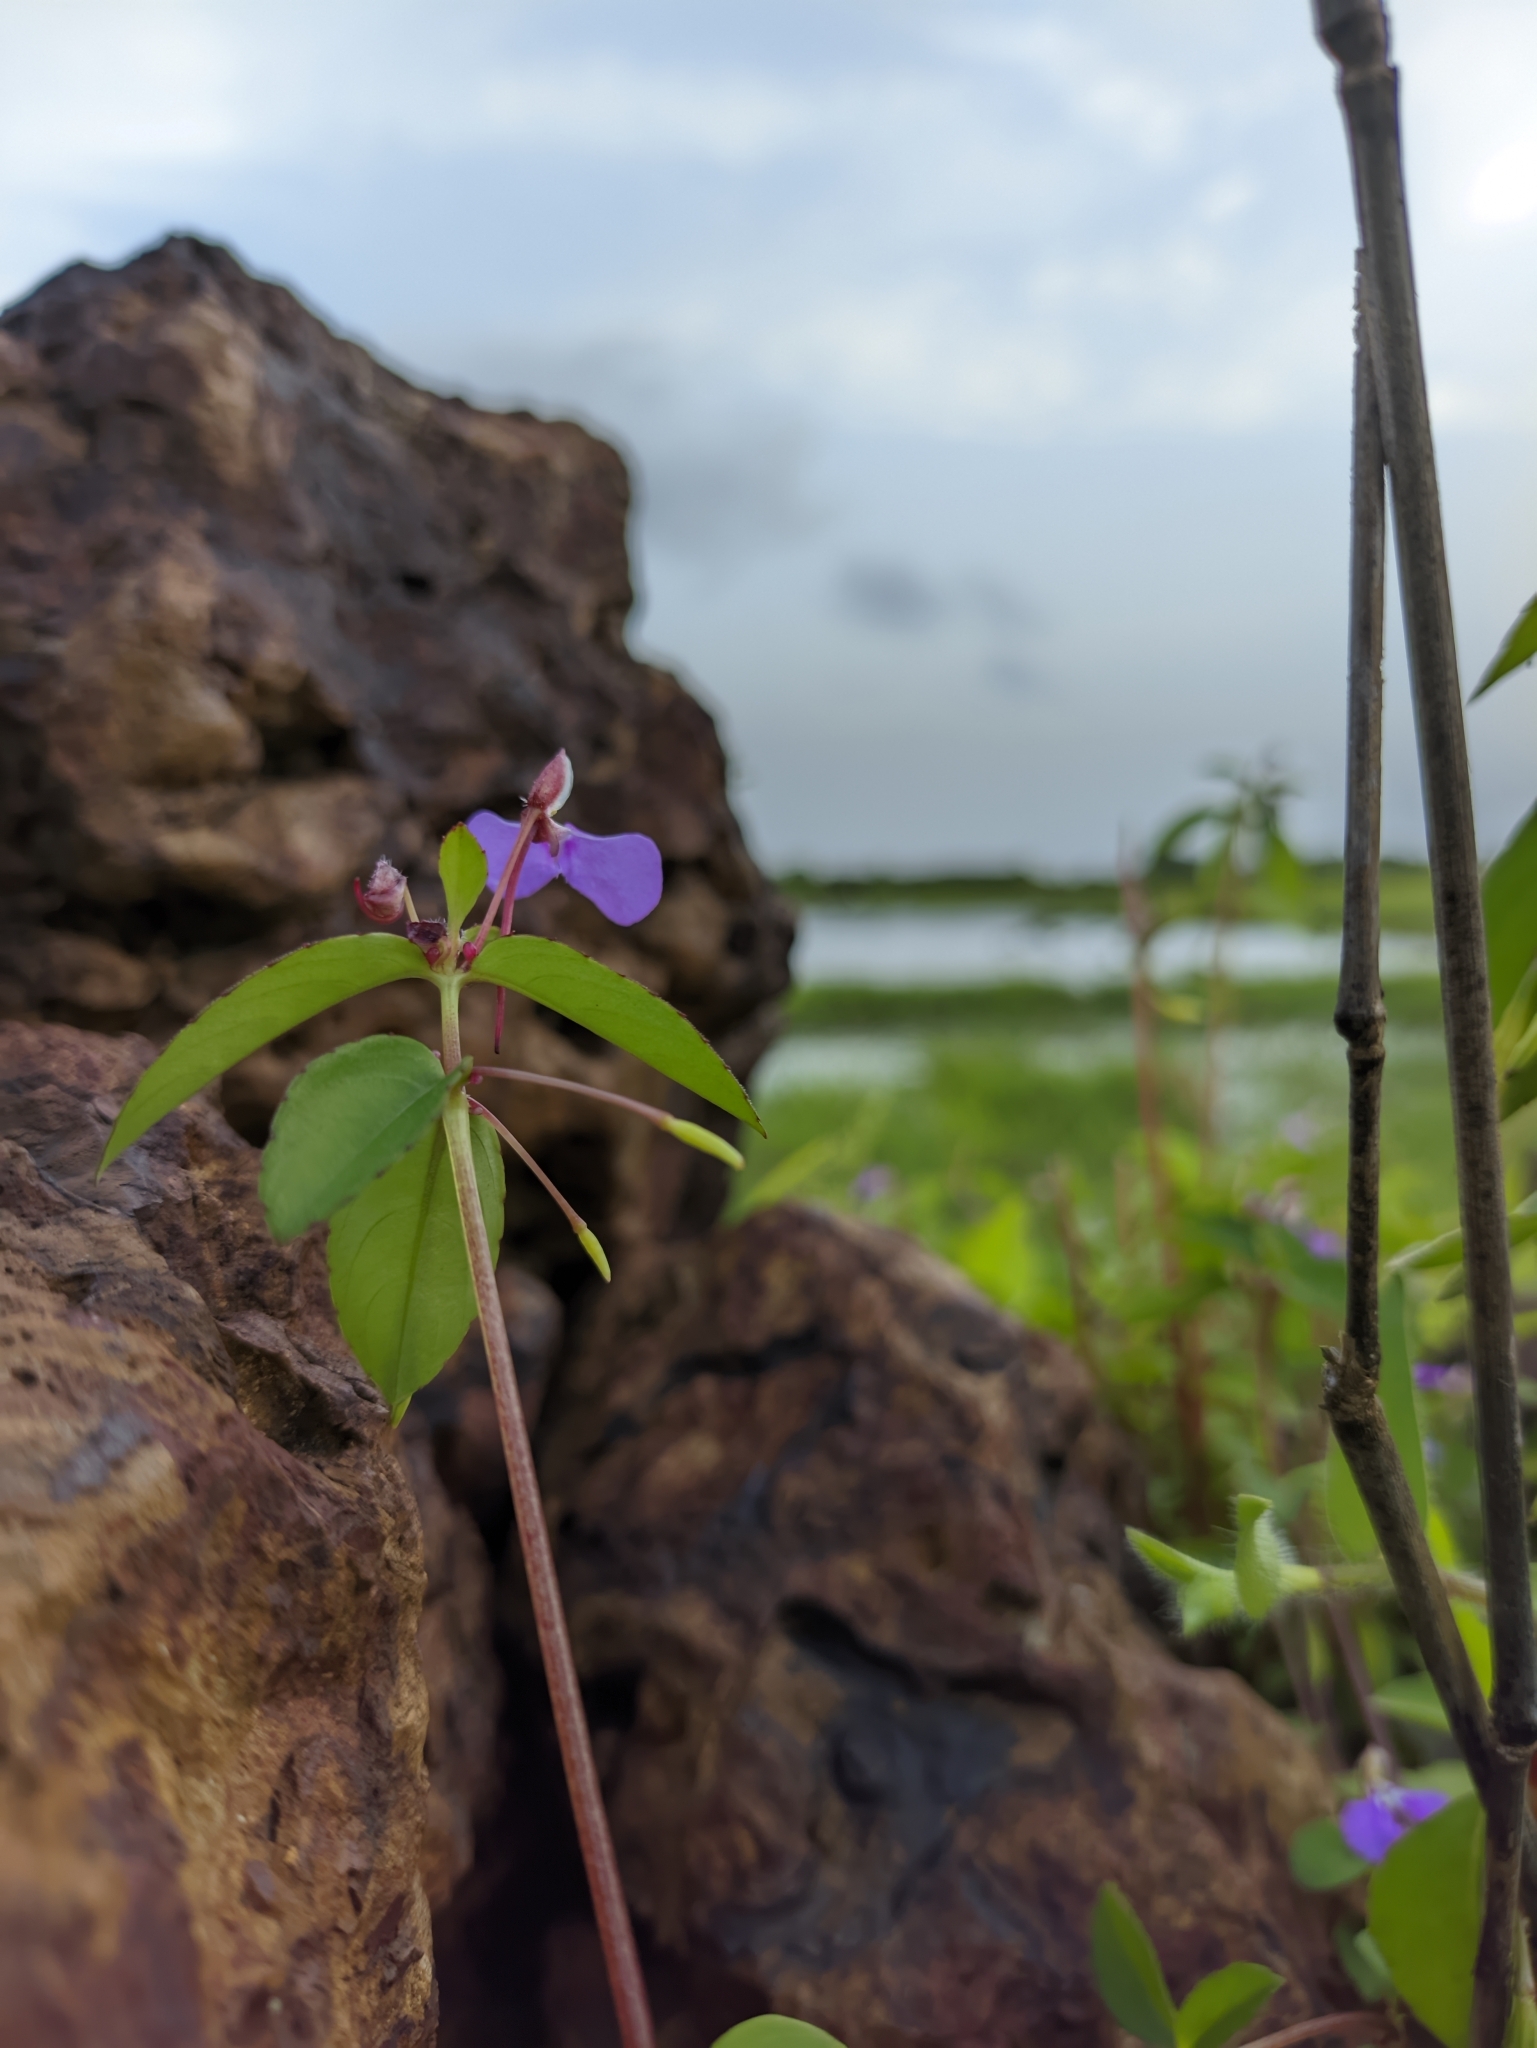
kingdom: Plantae
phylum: Tracheophyta
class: Magnoliopsida
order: Ericales
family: Balsaminaceae
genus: Impatiens
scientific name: Impatiens minor
